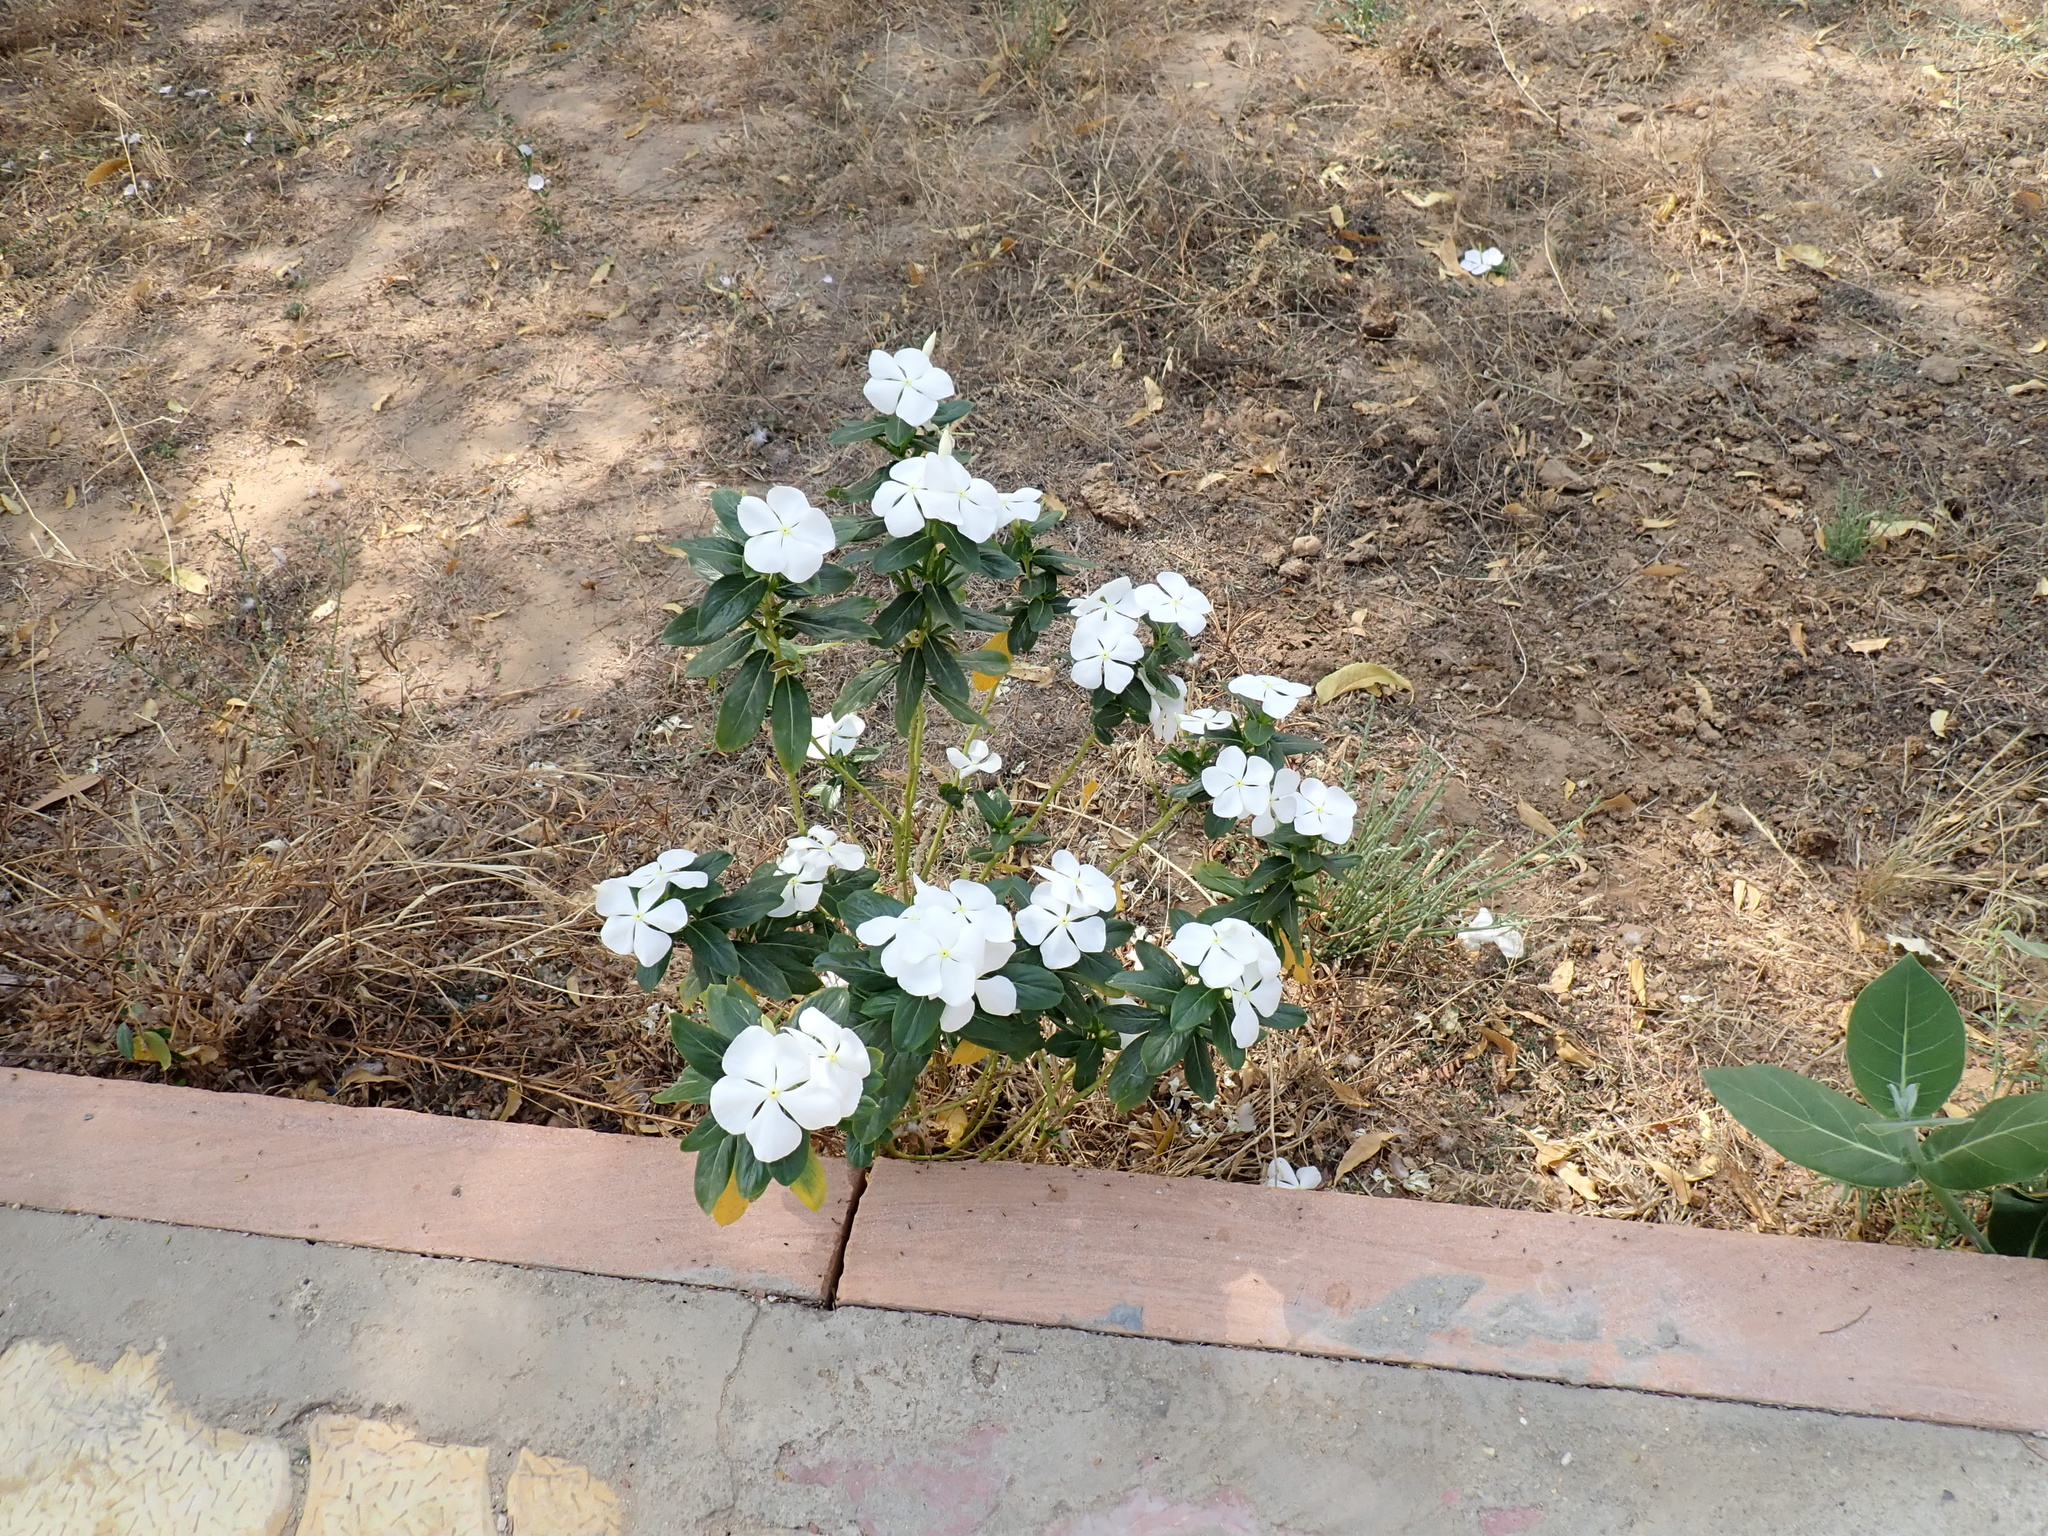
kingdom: Plantae
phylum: Tracheophyta
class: Magnoliopsida
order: Gentianales
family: Apocynaceae
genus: Catharanthus
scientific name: Catharanthus roseus
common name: Madagascar periwinkle
